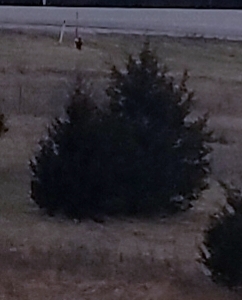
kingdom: Plantae
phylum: Tracheophyta
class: Pinopsida
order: Pinales
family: Cupressaceae
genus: Juniperus
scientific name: Juniperus virginiana
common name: Red juniper
